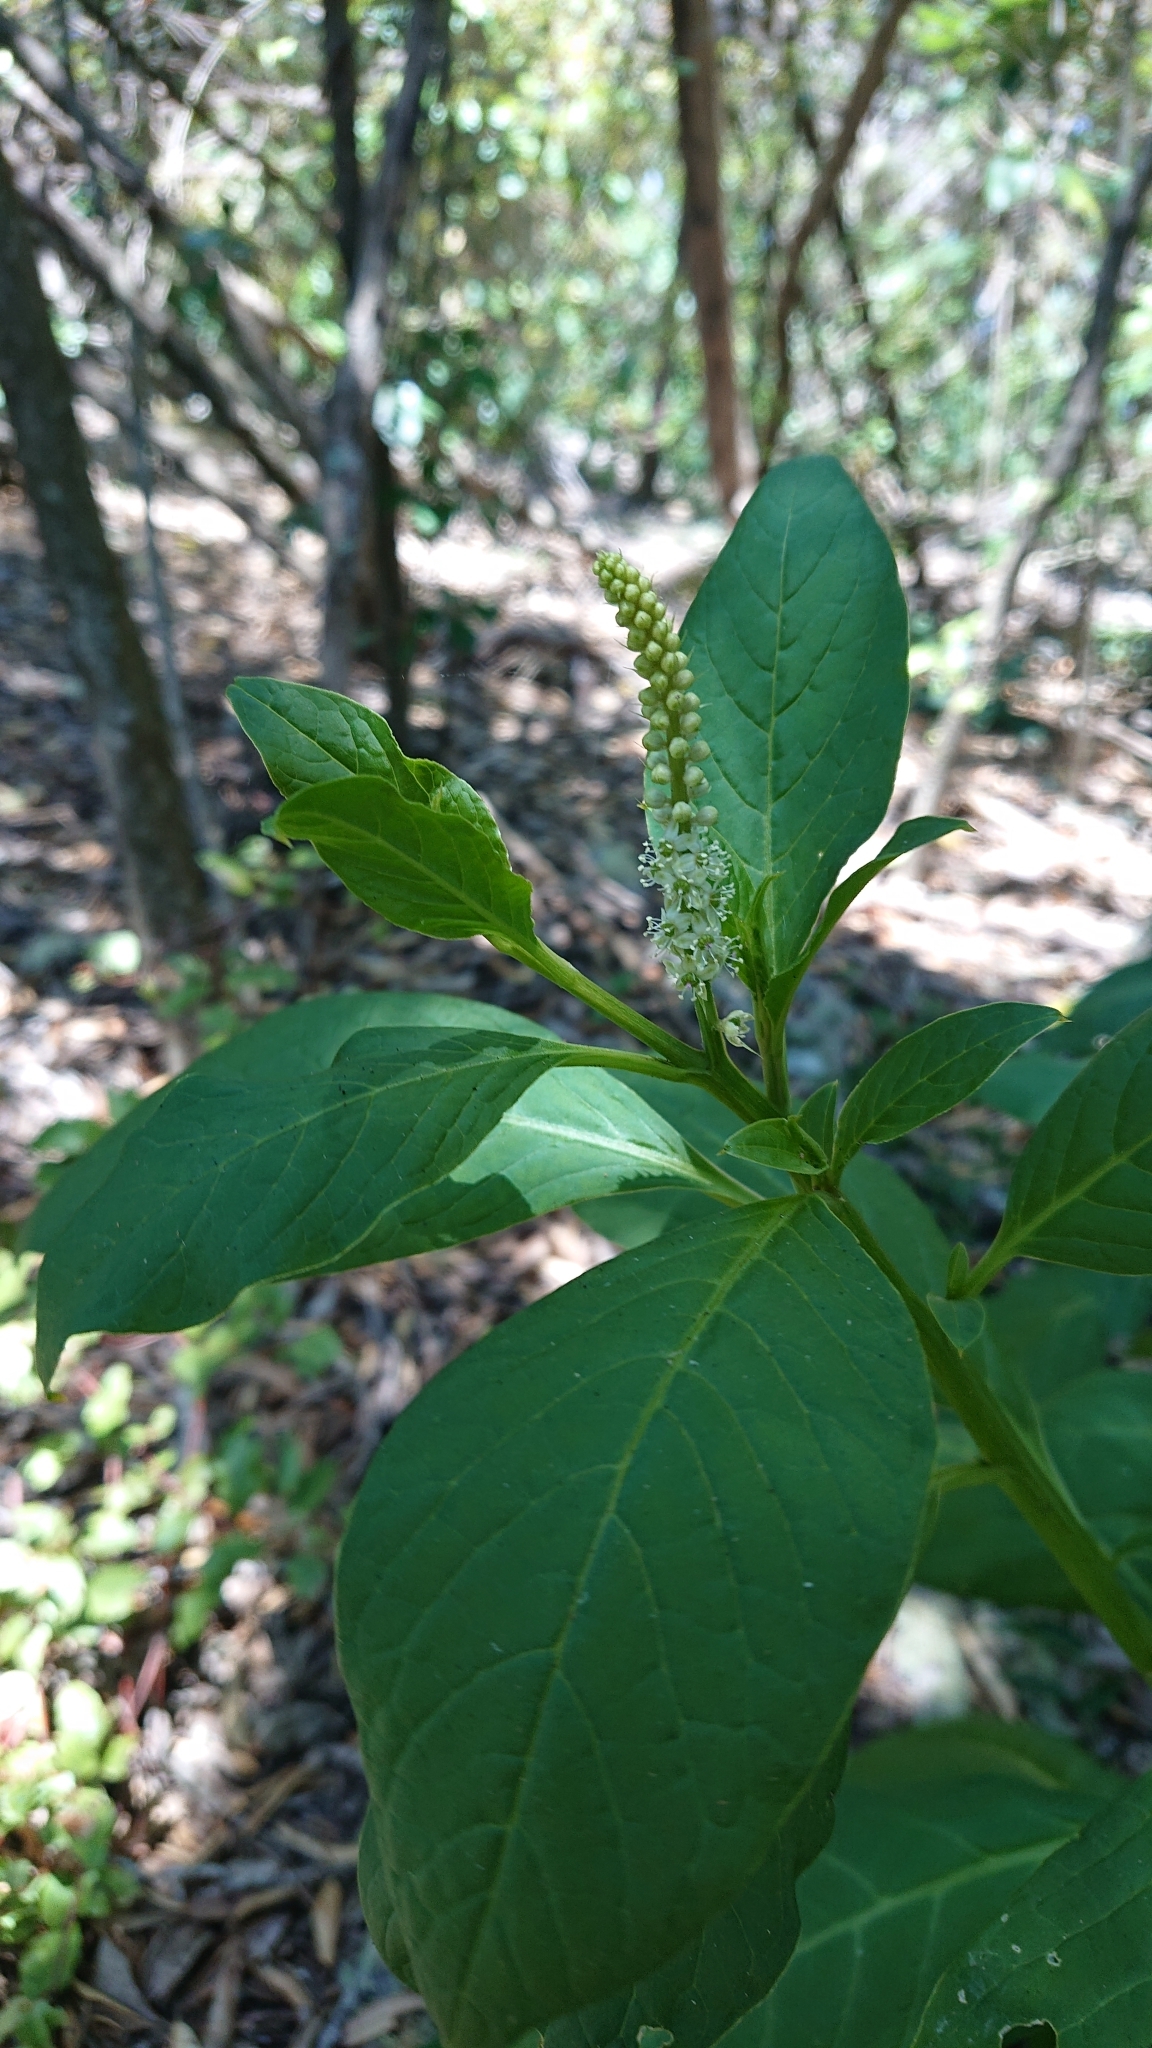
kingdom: Plantae
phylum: Tracheophyta
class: Magnoliopsida
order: Caryophyllales
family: Phytolaccaceae
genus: Phytolacca
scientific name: Phytolacca icosandra
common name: Button pokeweed
